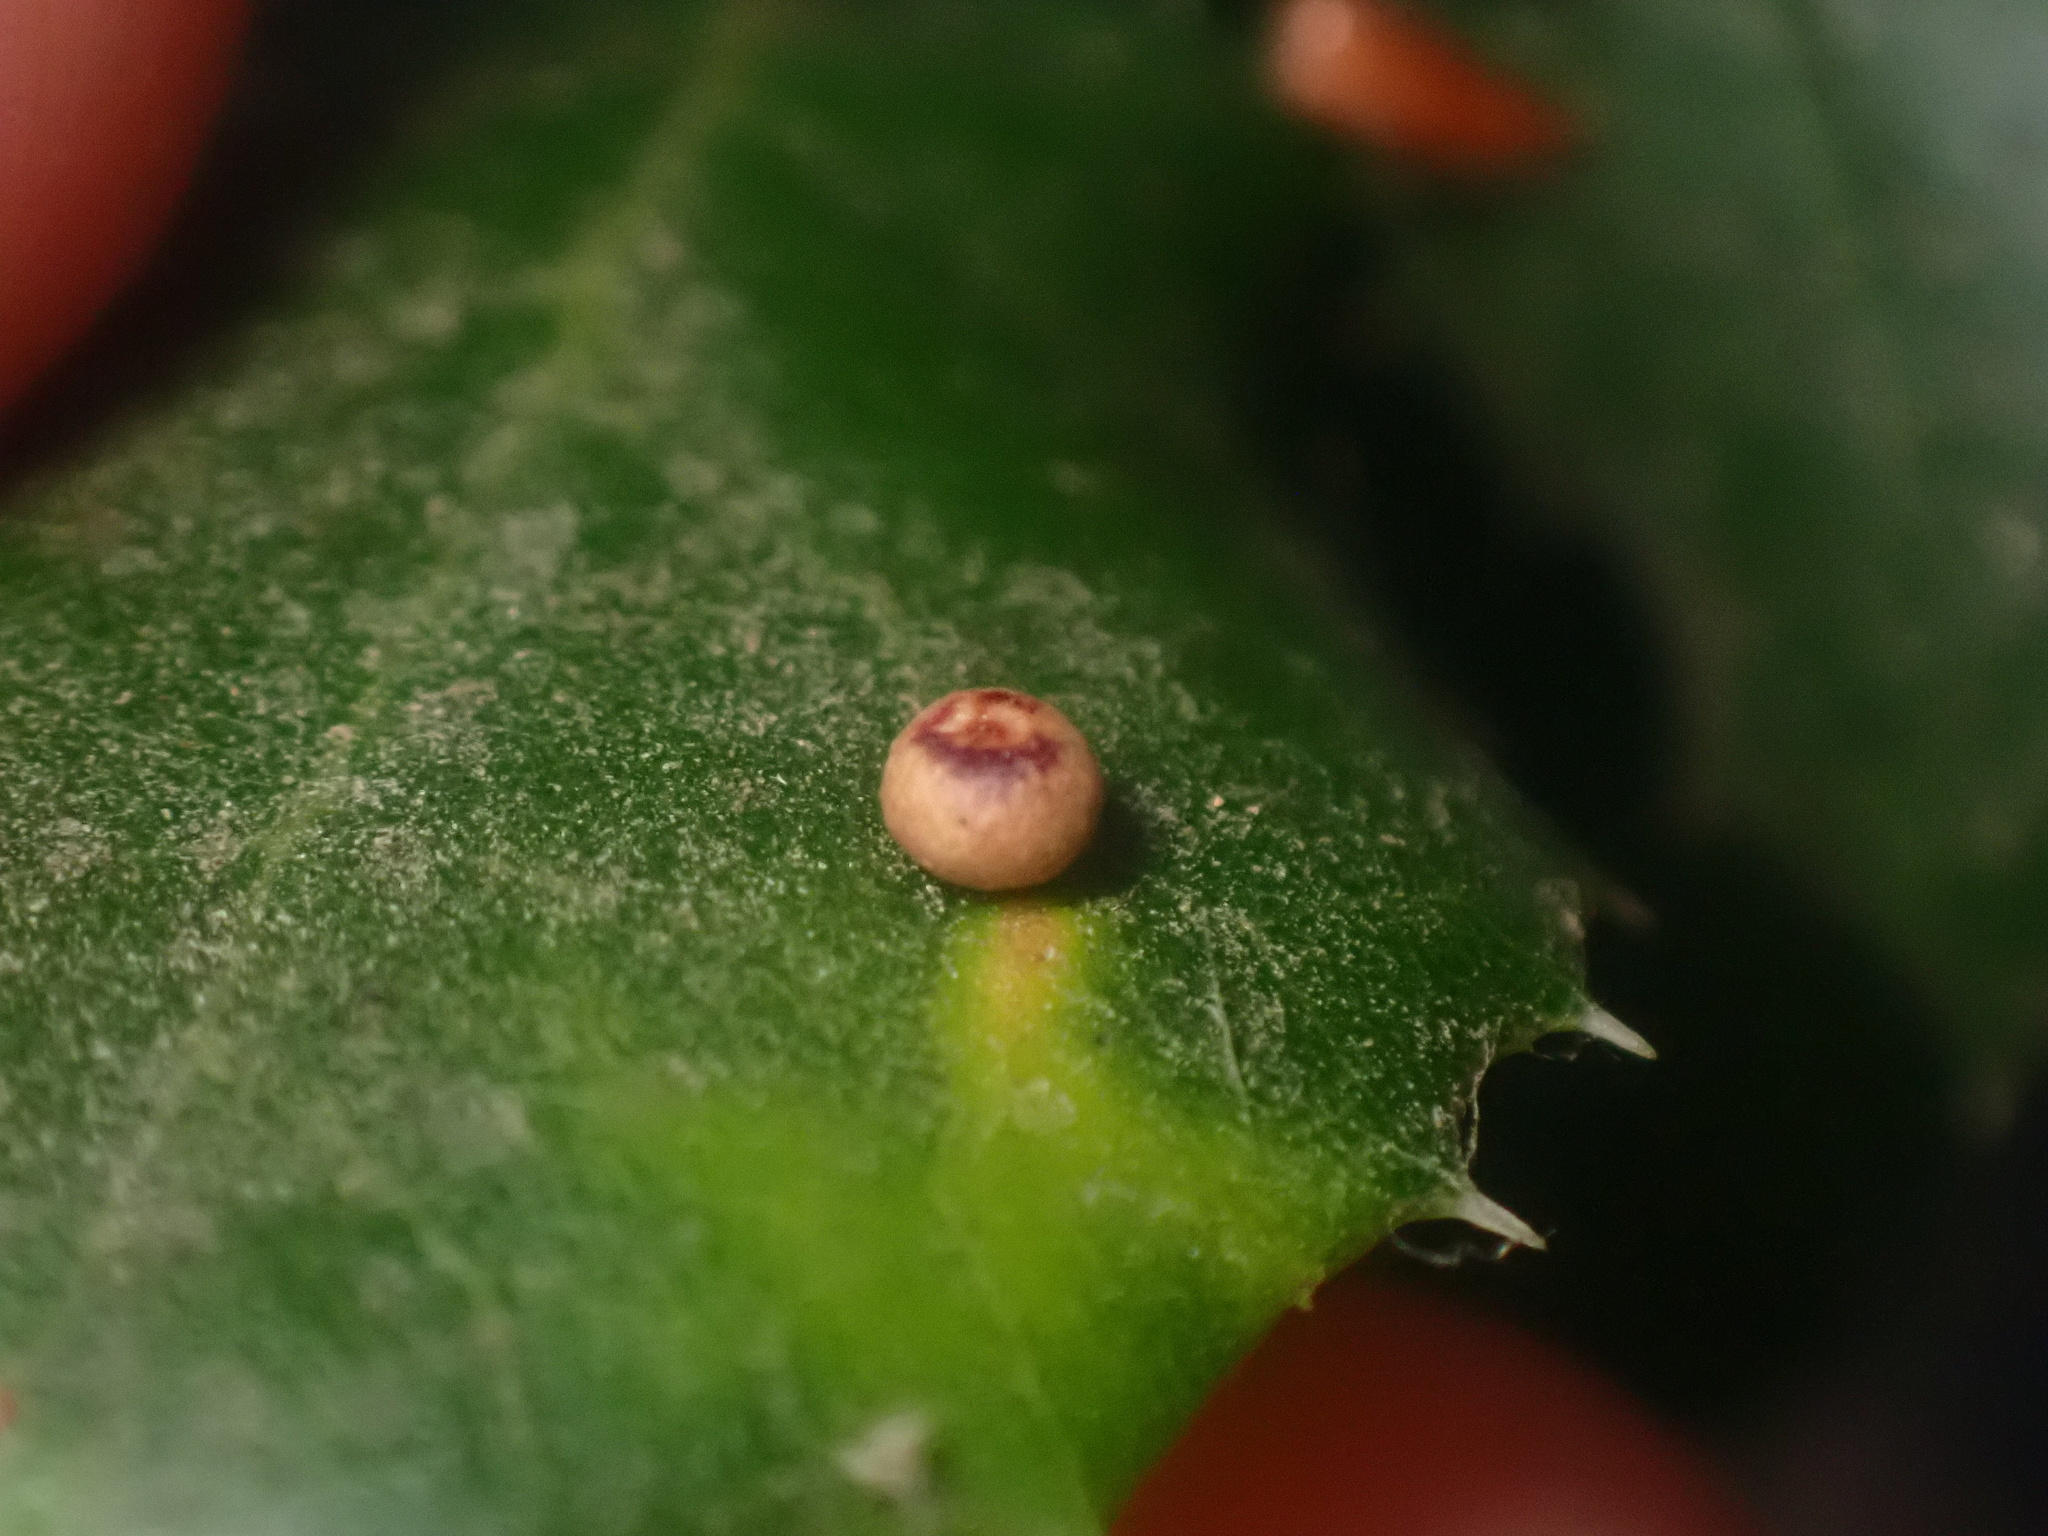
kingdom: Animalia
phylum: Arthropoda
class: Insecta
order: Hymenoptera
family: Cynipidae
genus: Dryocosmus
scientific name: Dryocosmus
